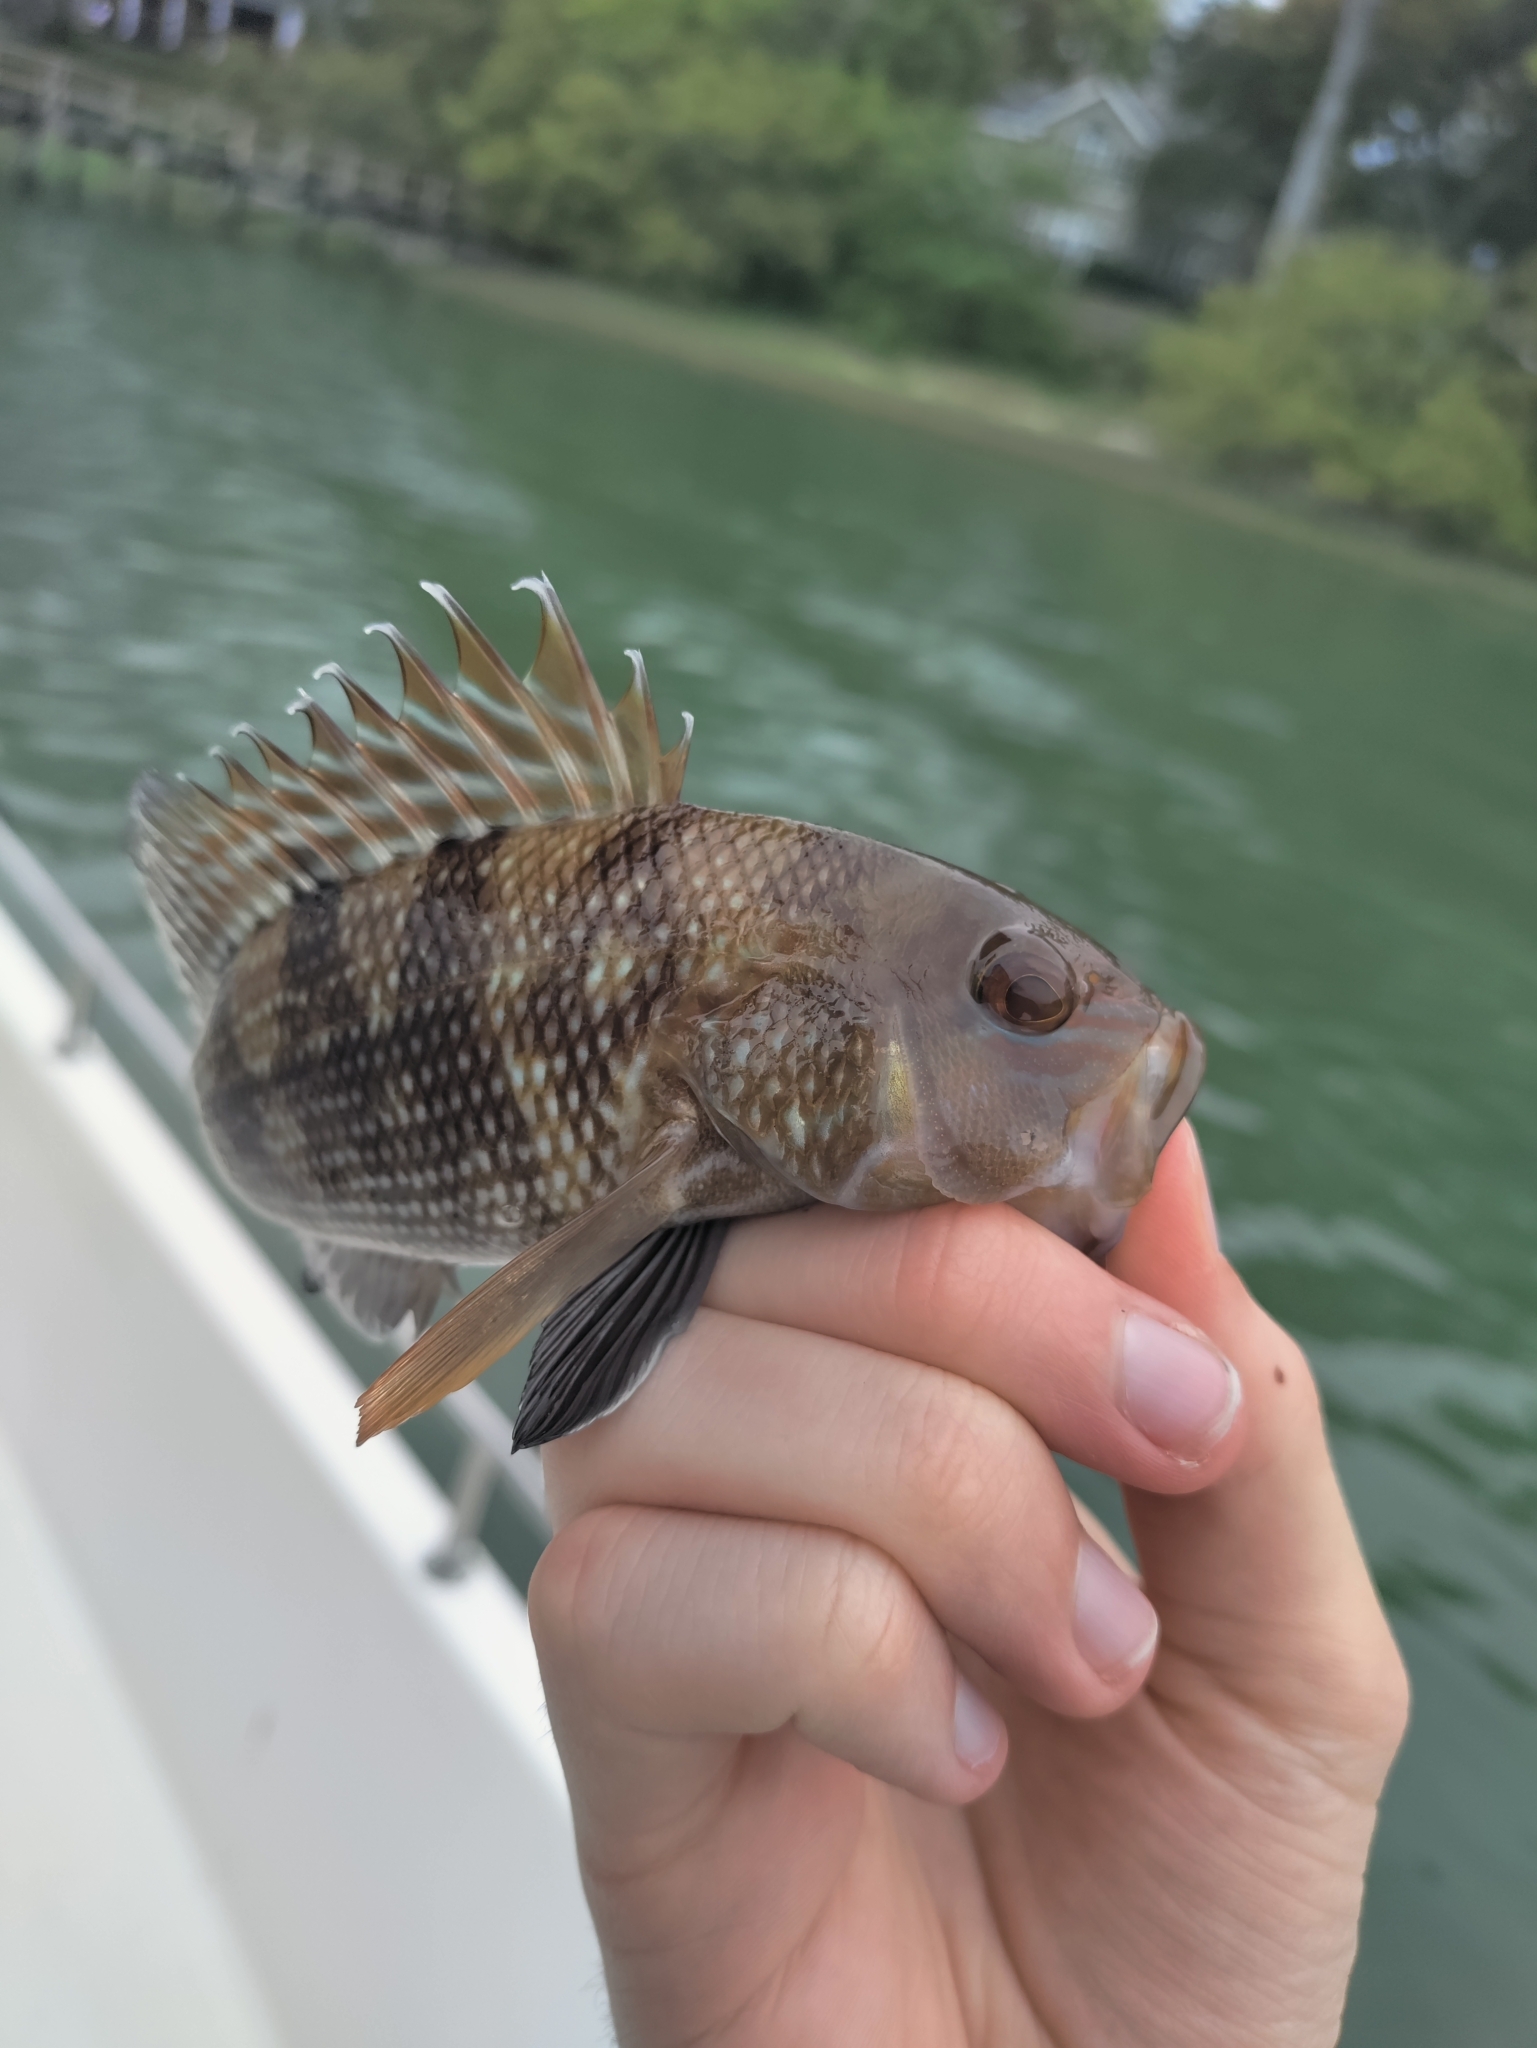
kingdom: Animalia
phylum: Chordata
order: Perciformes
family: Serranidae
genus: Centropristis
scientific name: Centropristis striata
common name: Black sea bass
